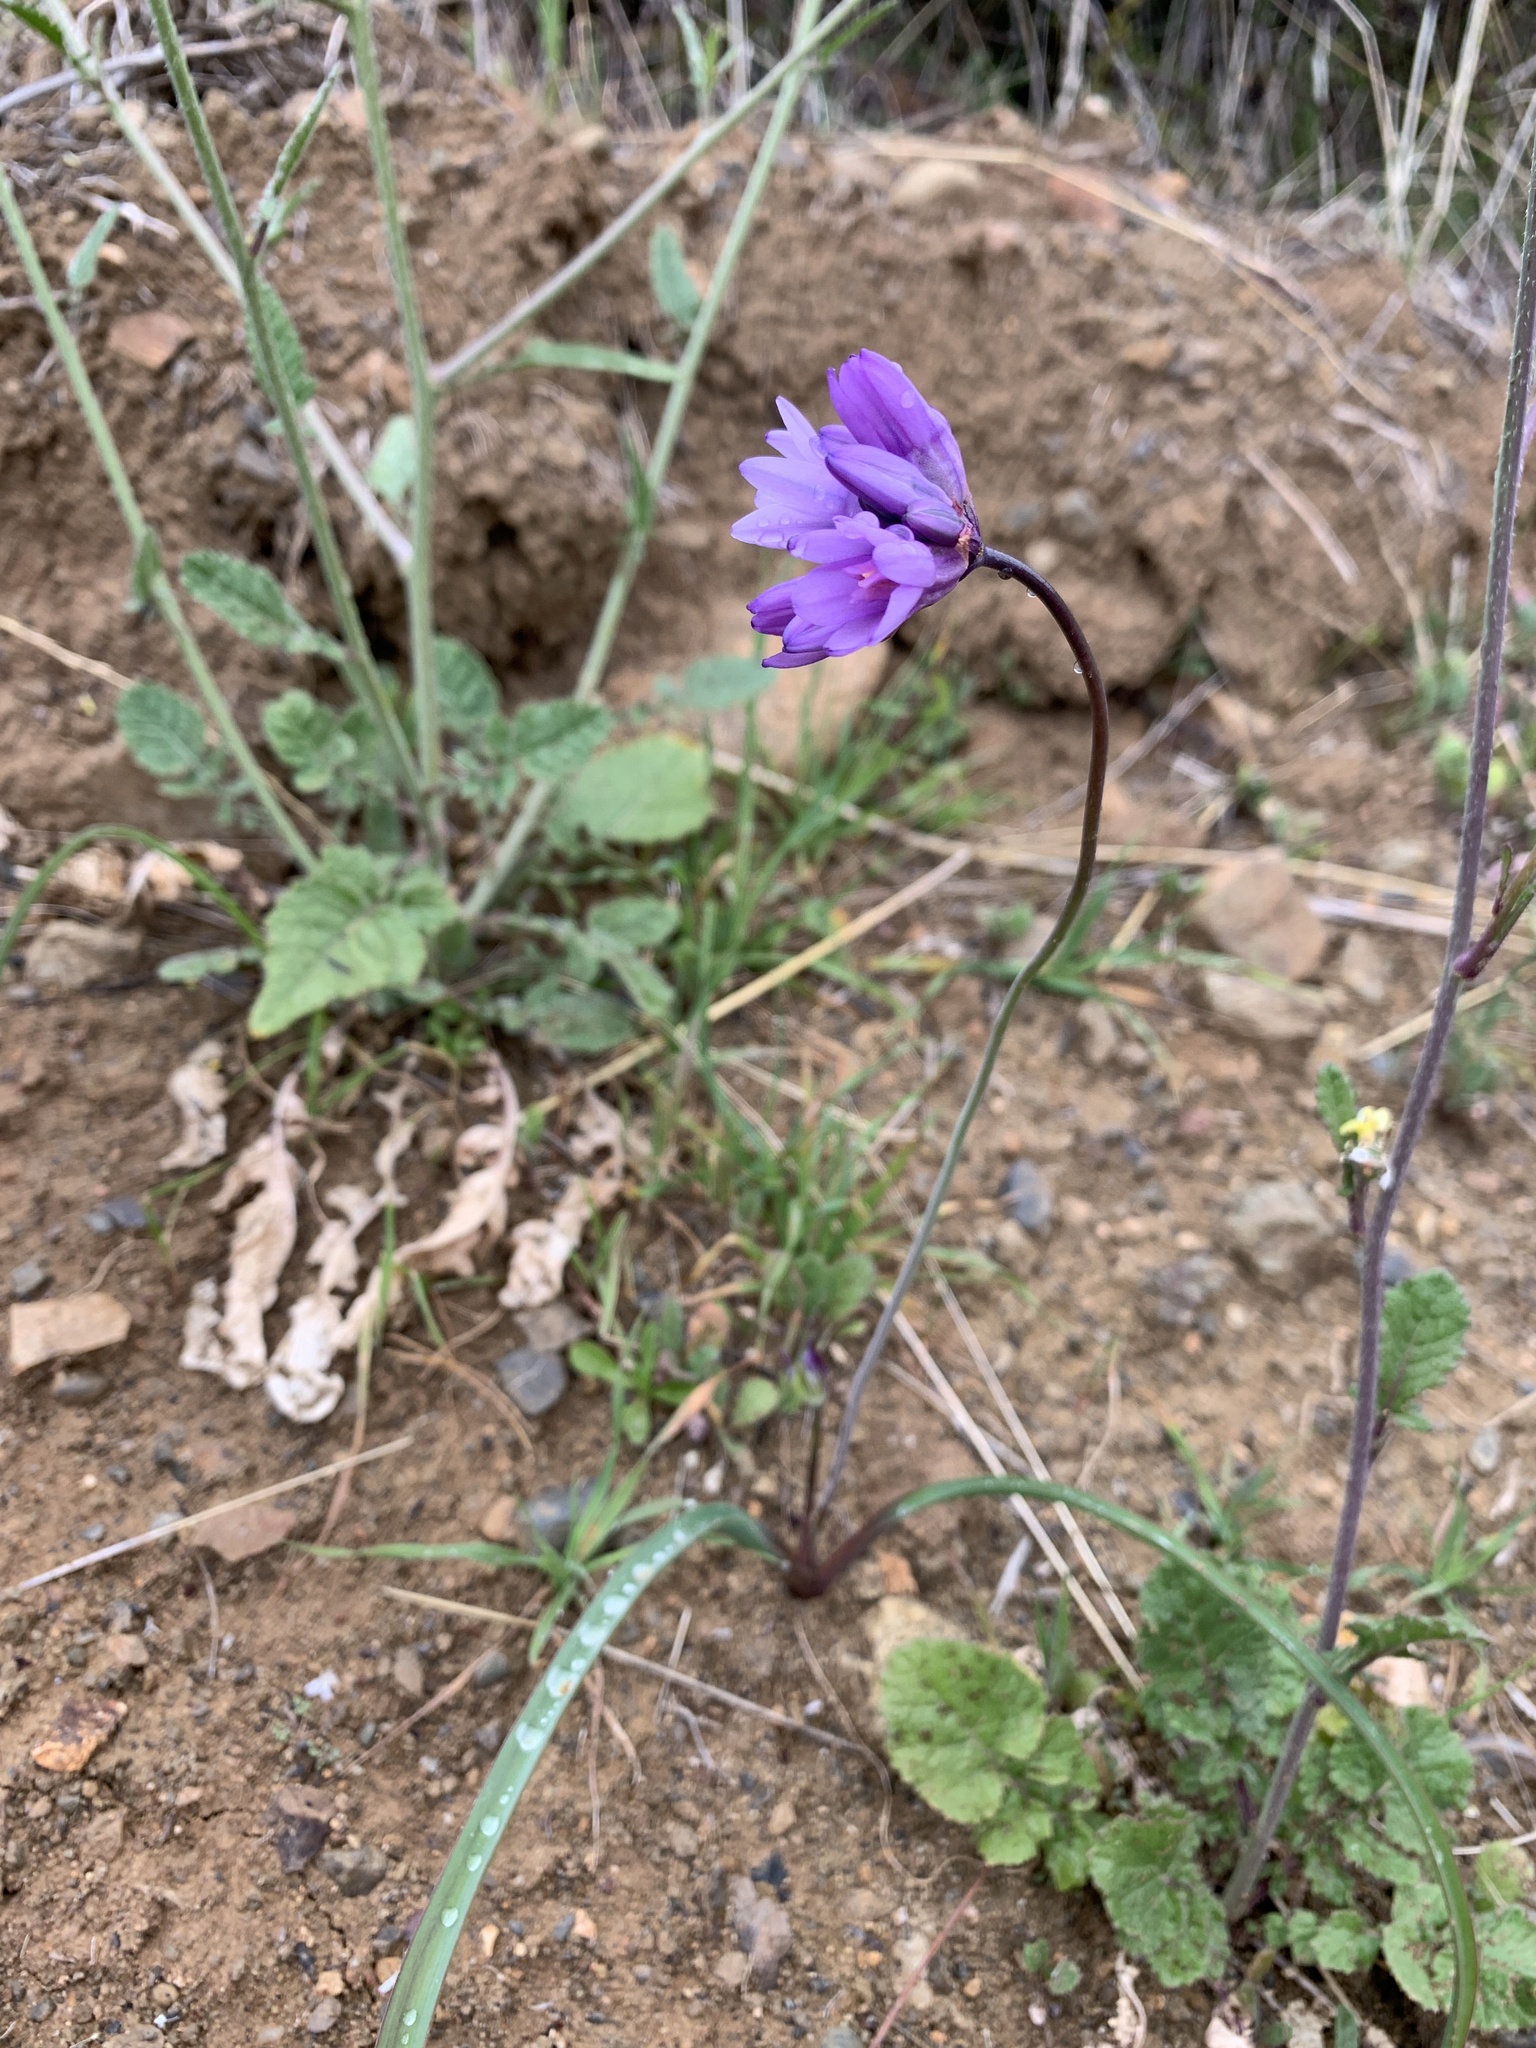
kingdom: Plantae
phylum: Tracheophyta
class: Liliopsida
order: Asparagales
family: Asparagaceae
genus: Dipterostemon
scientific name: Dipterostemon capitatus
